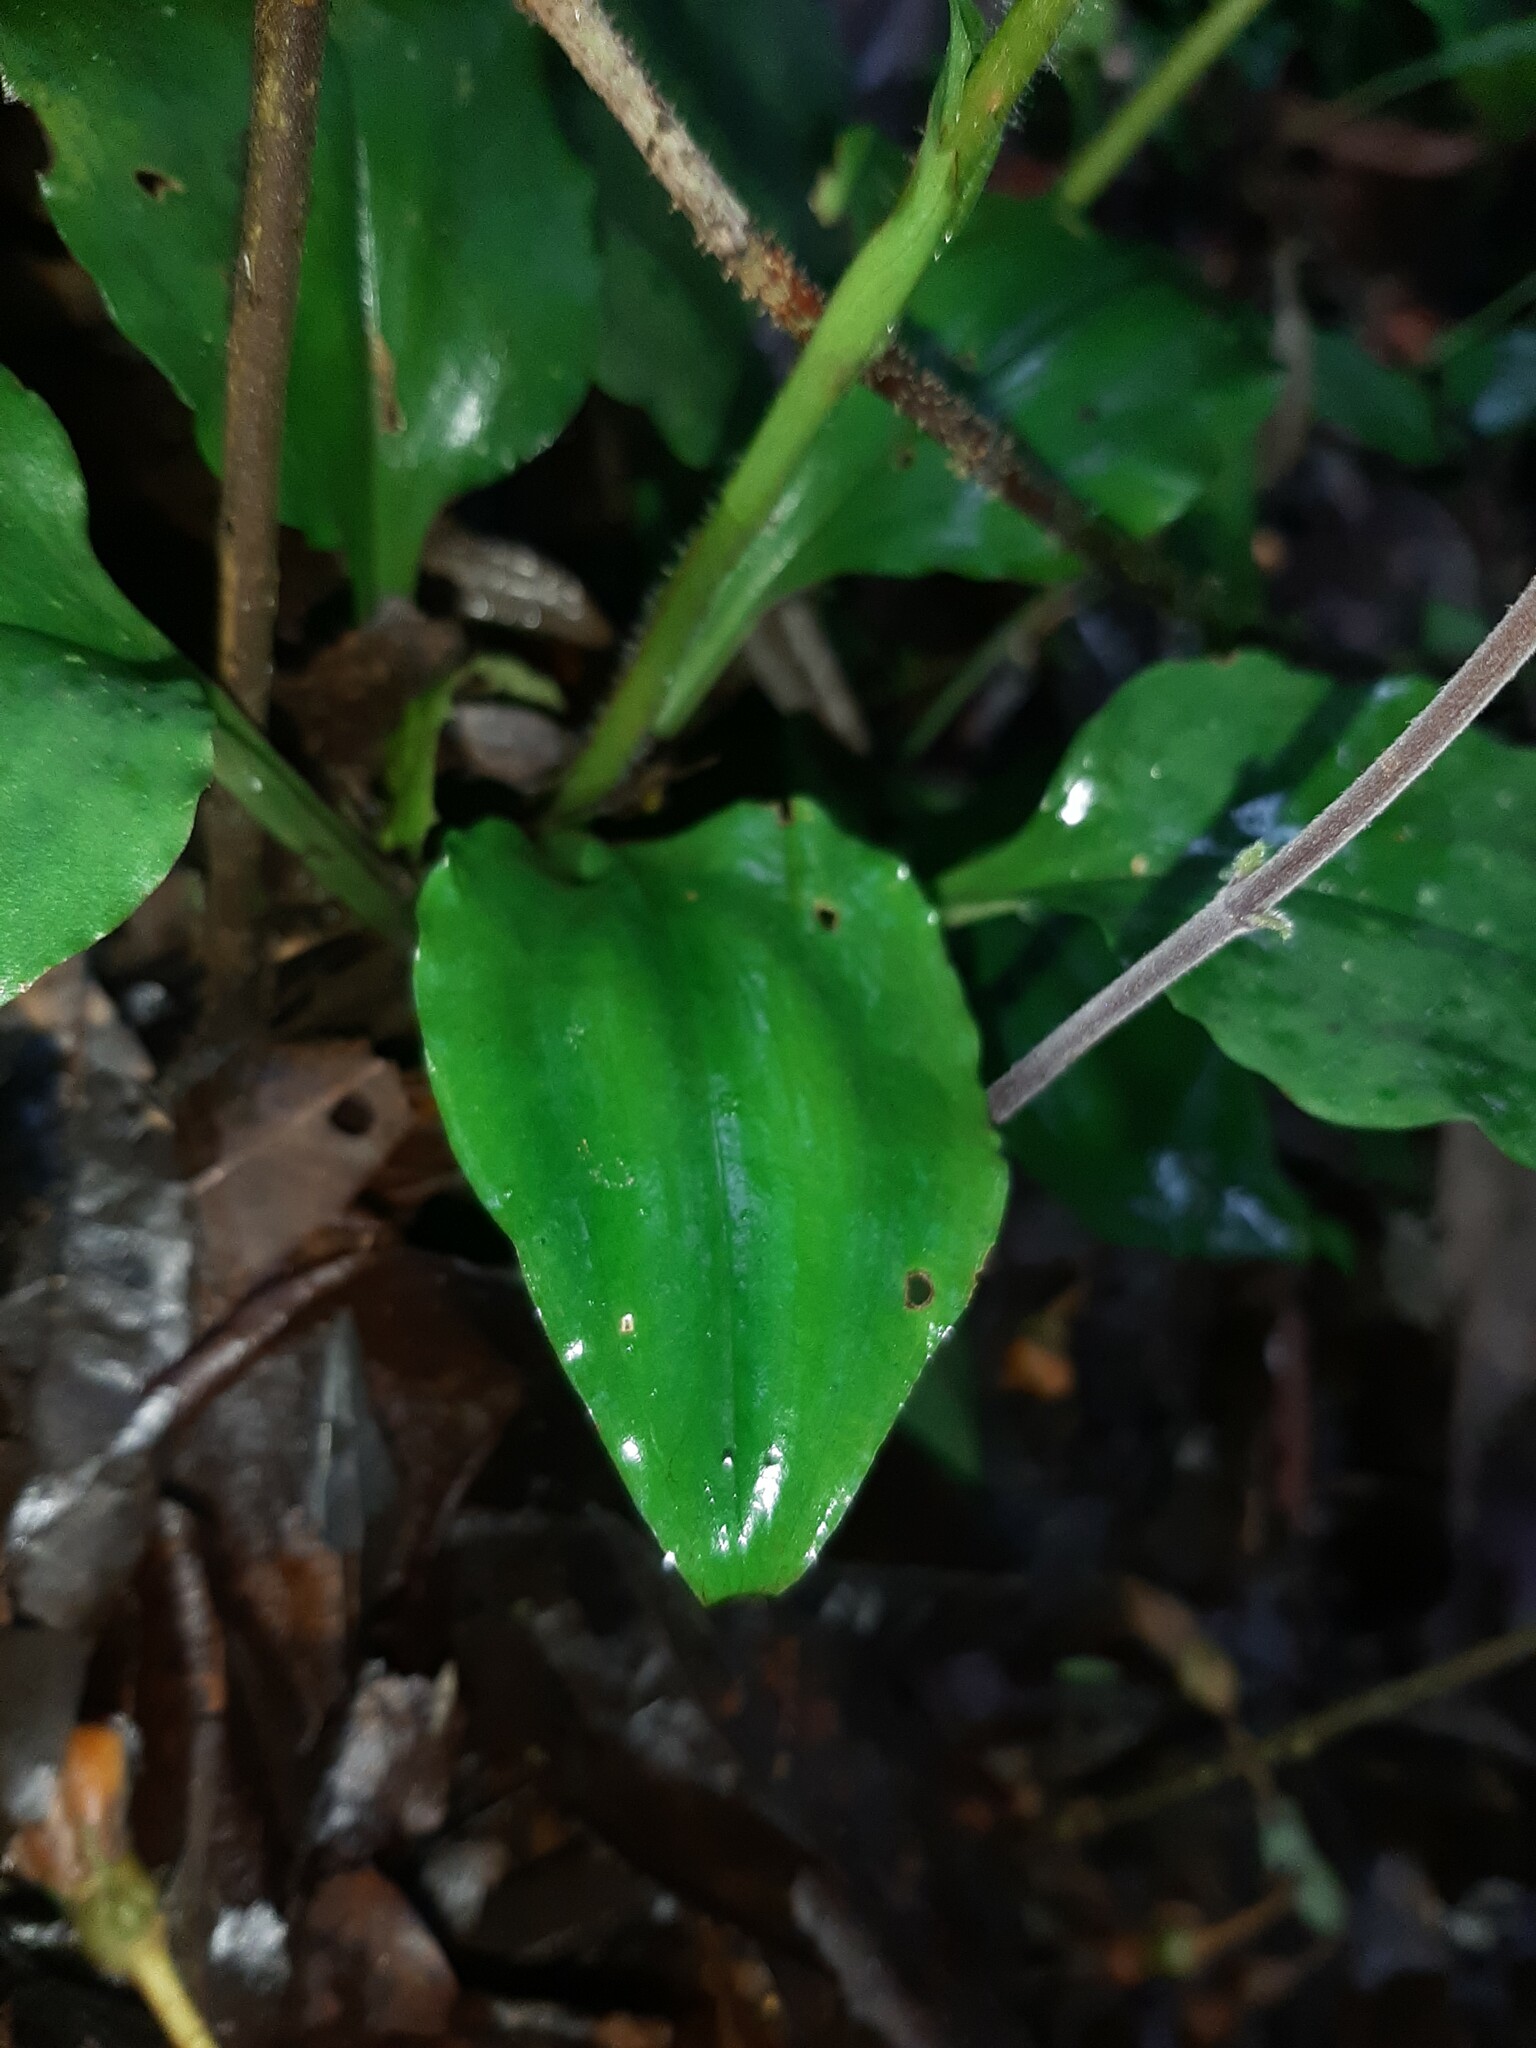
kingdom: Plantae
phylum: Tracheophyta
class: Liliopsida
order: Asparagales
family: Orchidaceae
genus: Ponthieva
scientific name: Ponthieva tuerckheimii
